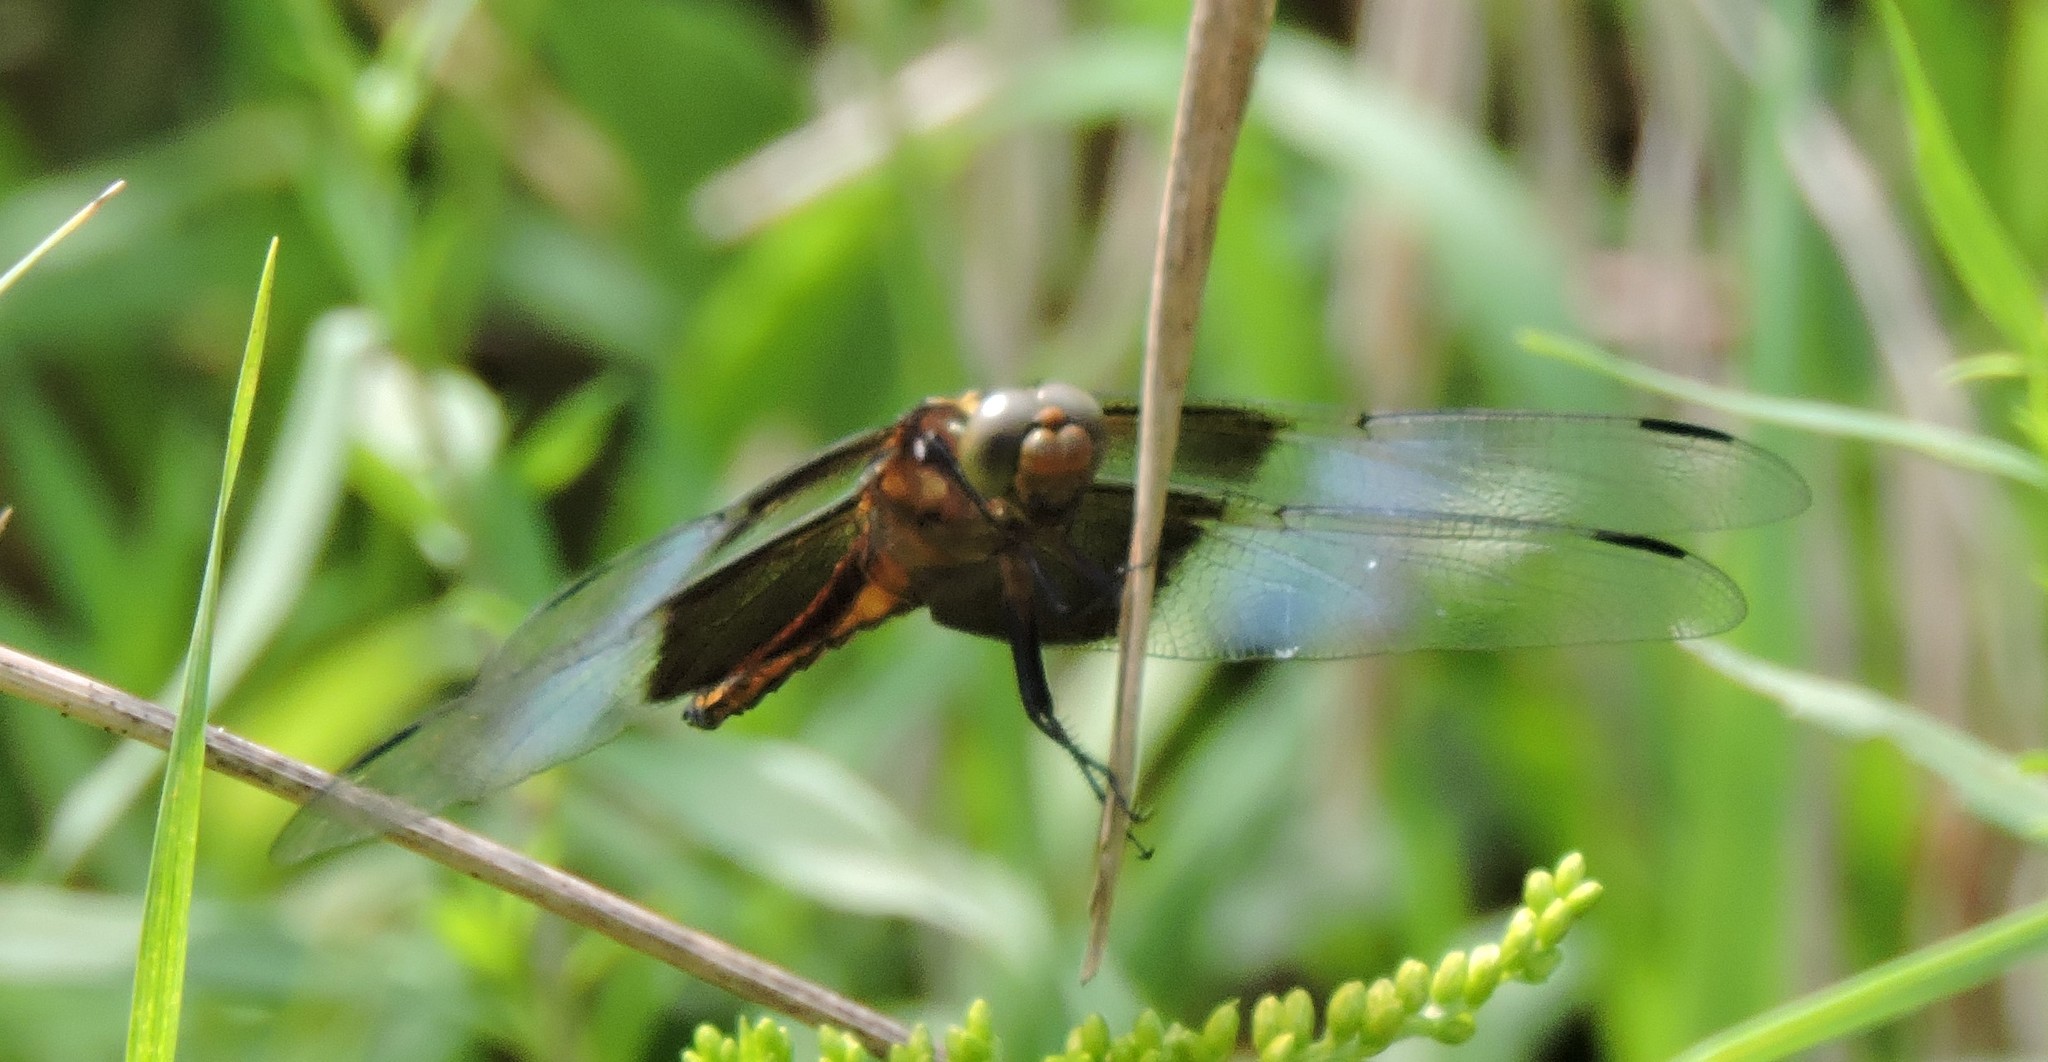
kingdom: Animalia
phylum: Arthropoda
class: Insecta
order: Odonata
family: Libellulidae
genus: Libellula
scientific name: Libellula luctuosa
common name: Widow skimmer
